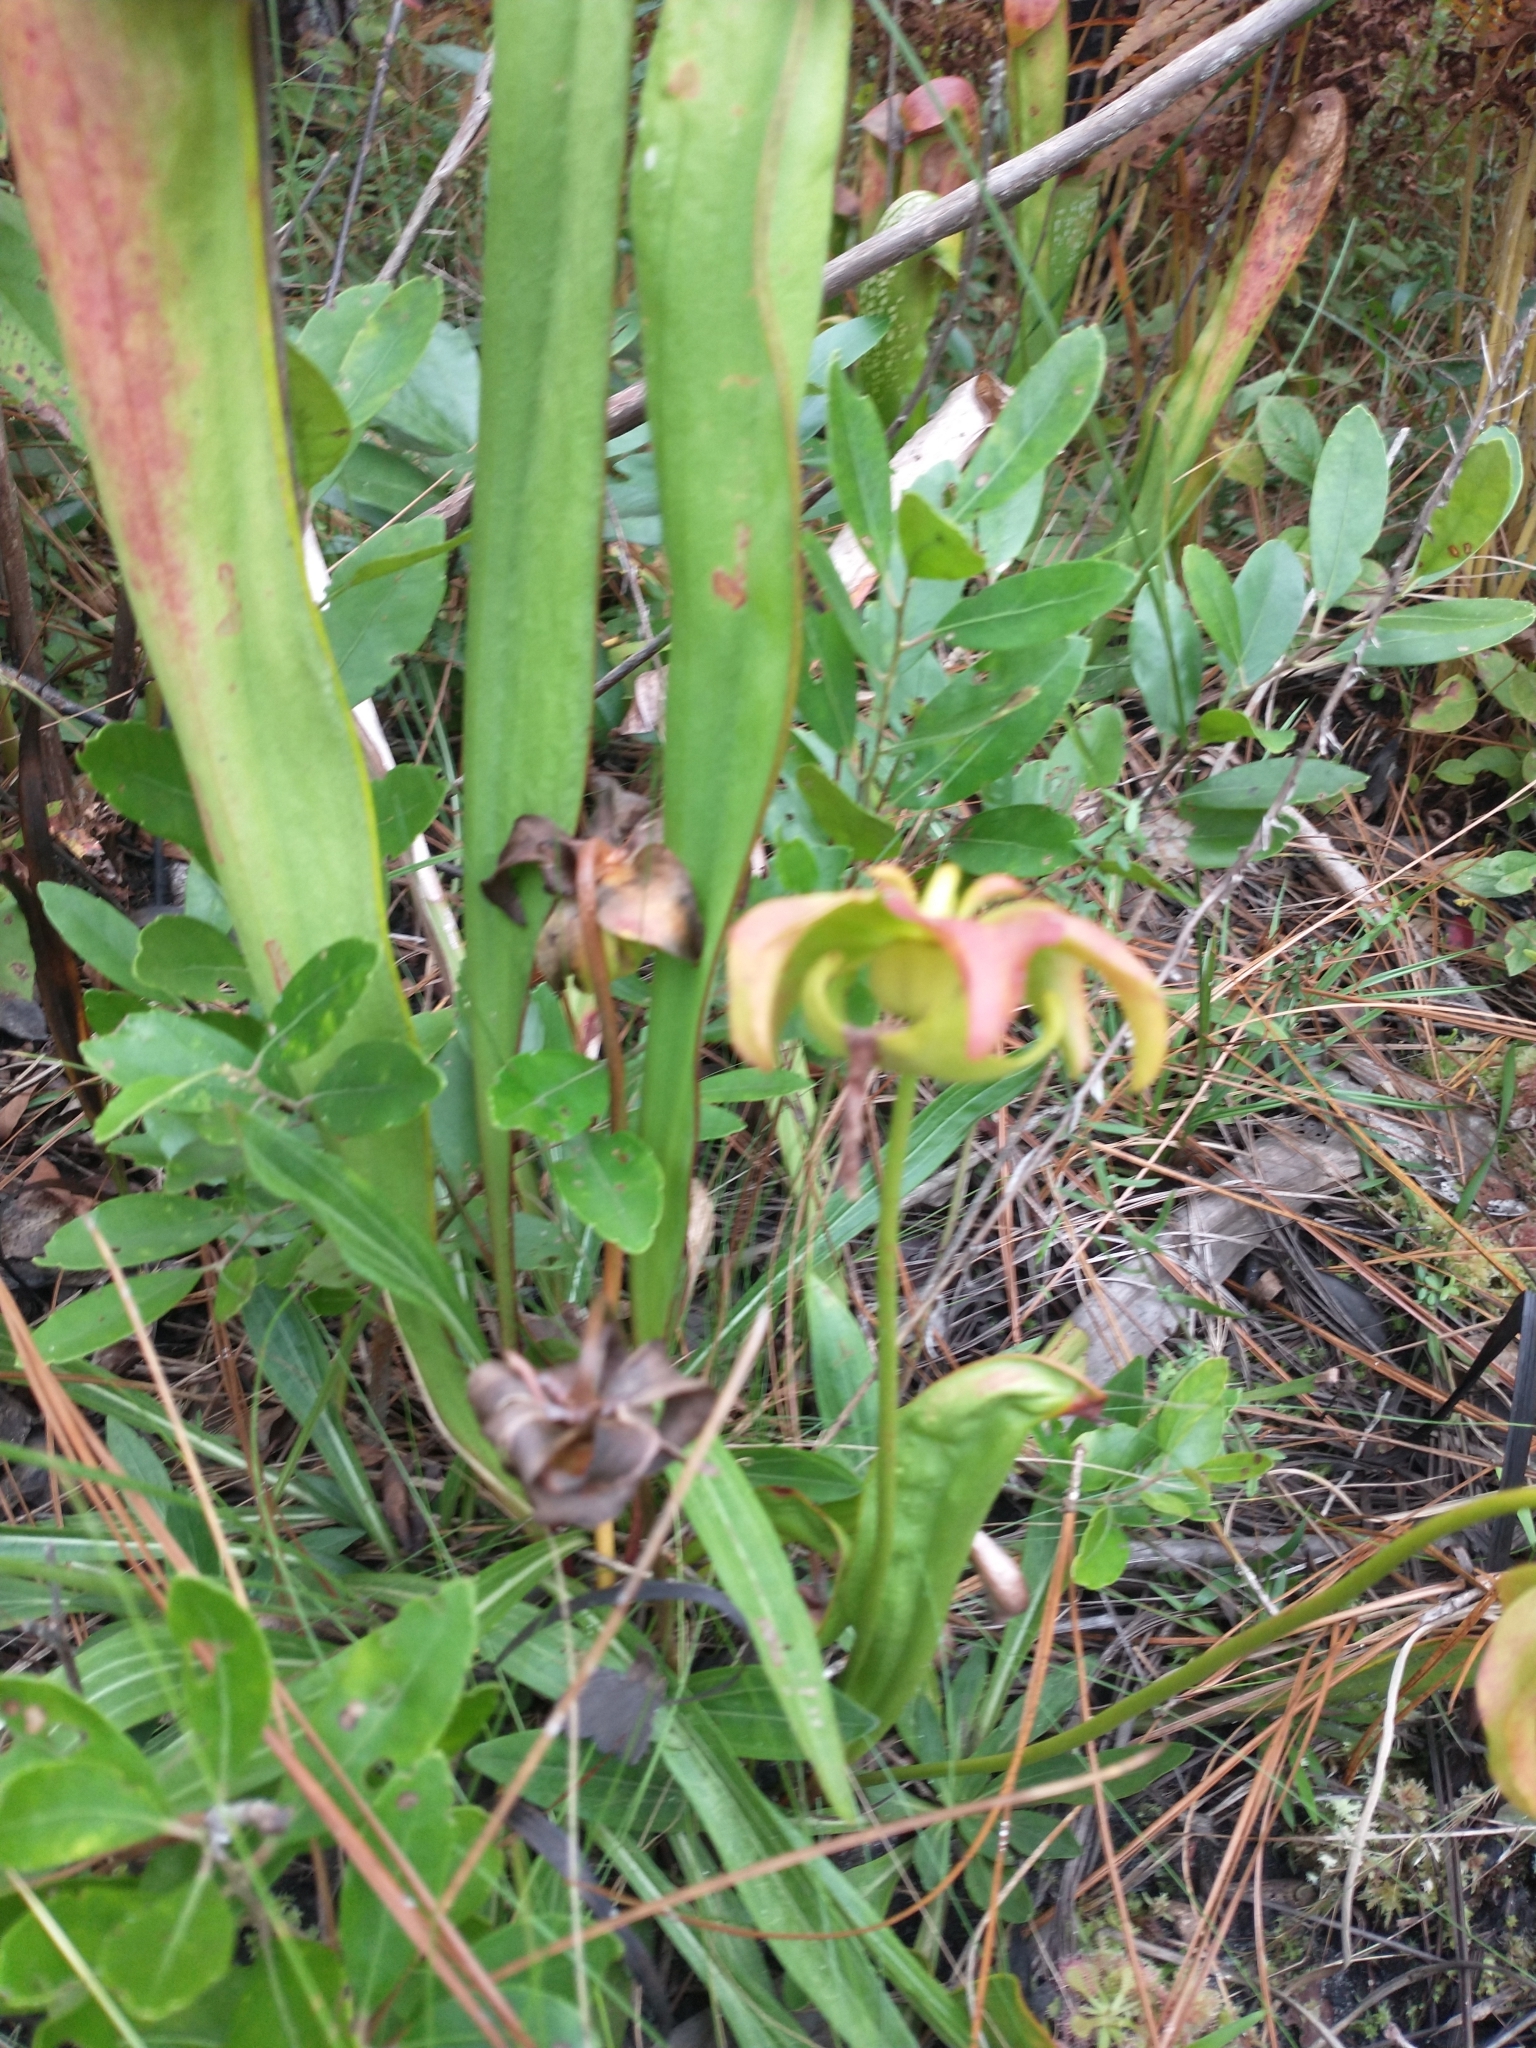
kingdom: Plantae
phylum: Tracheophyta
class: Magnoliopsida
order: Ericales
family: Sarraceniaceae
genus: Sarracenia
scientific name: Sarracenia minor
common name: Rainhat-trumpet
